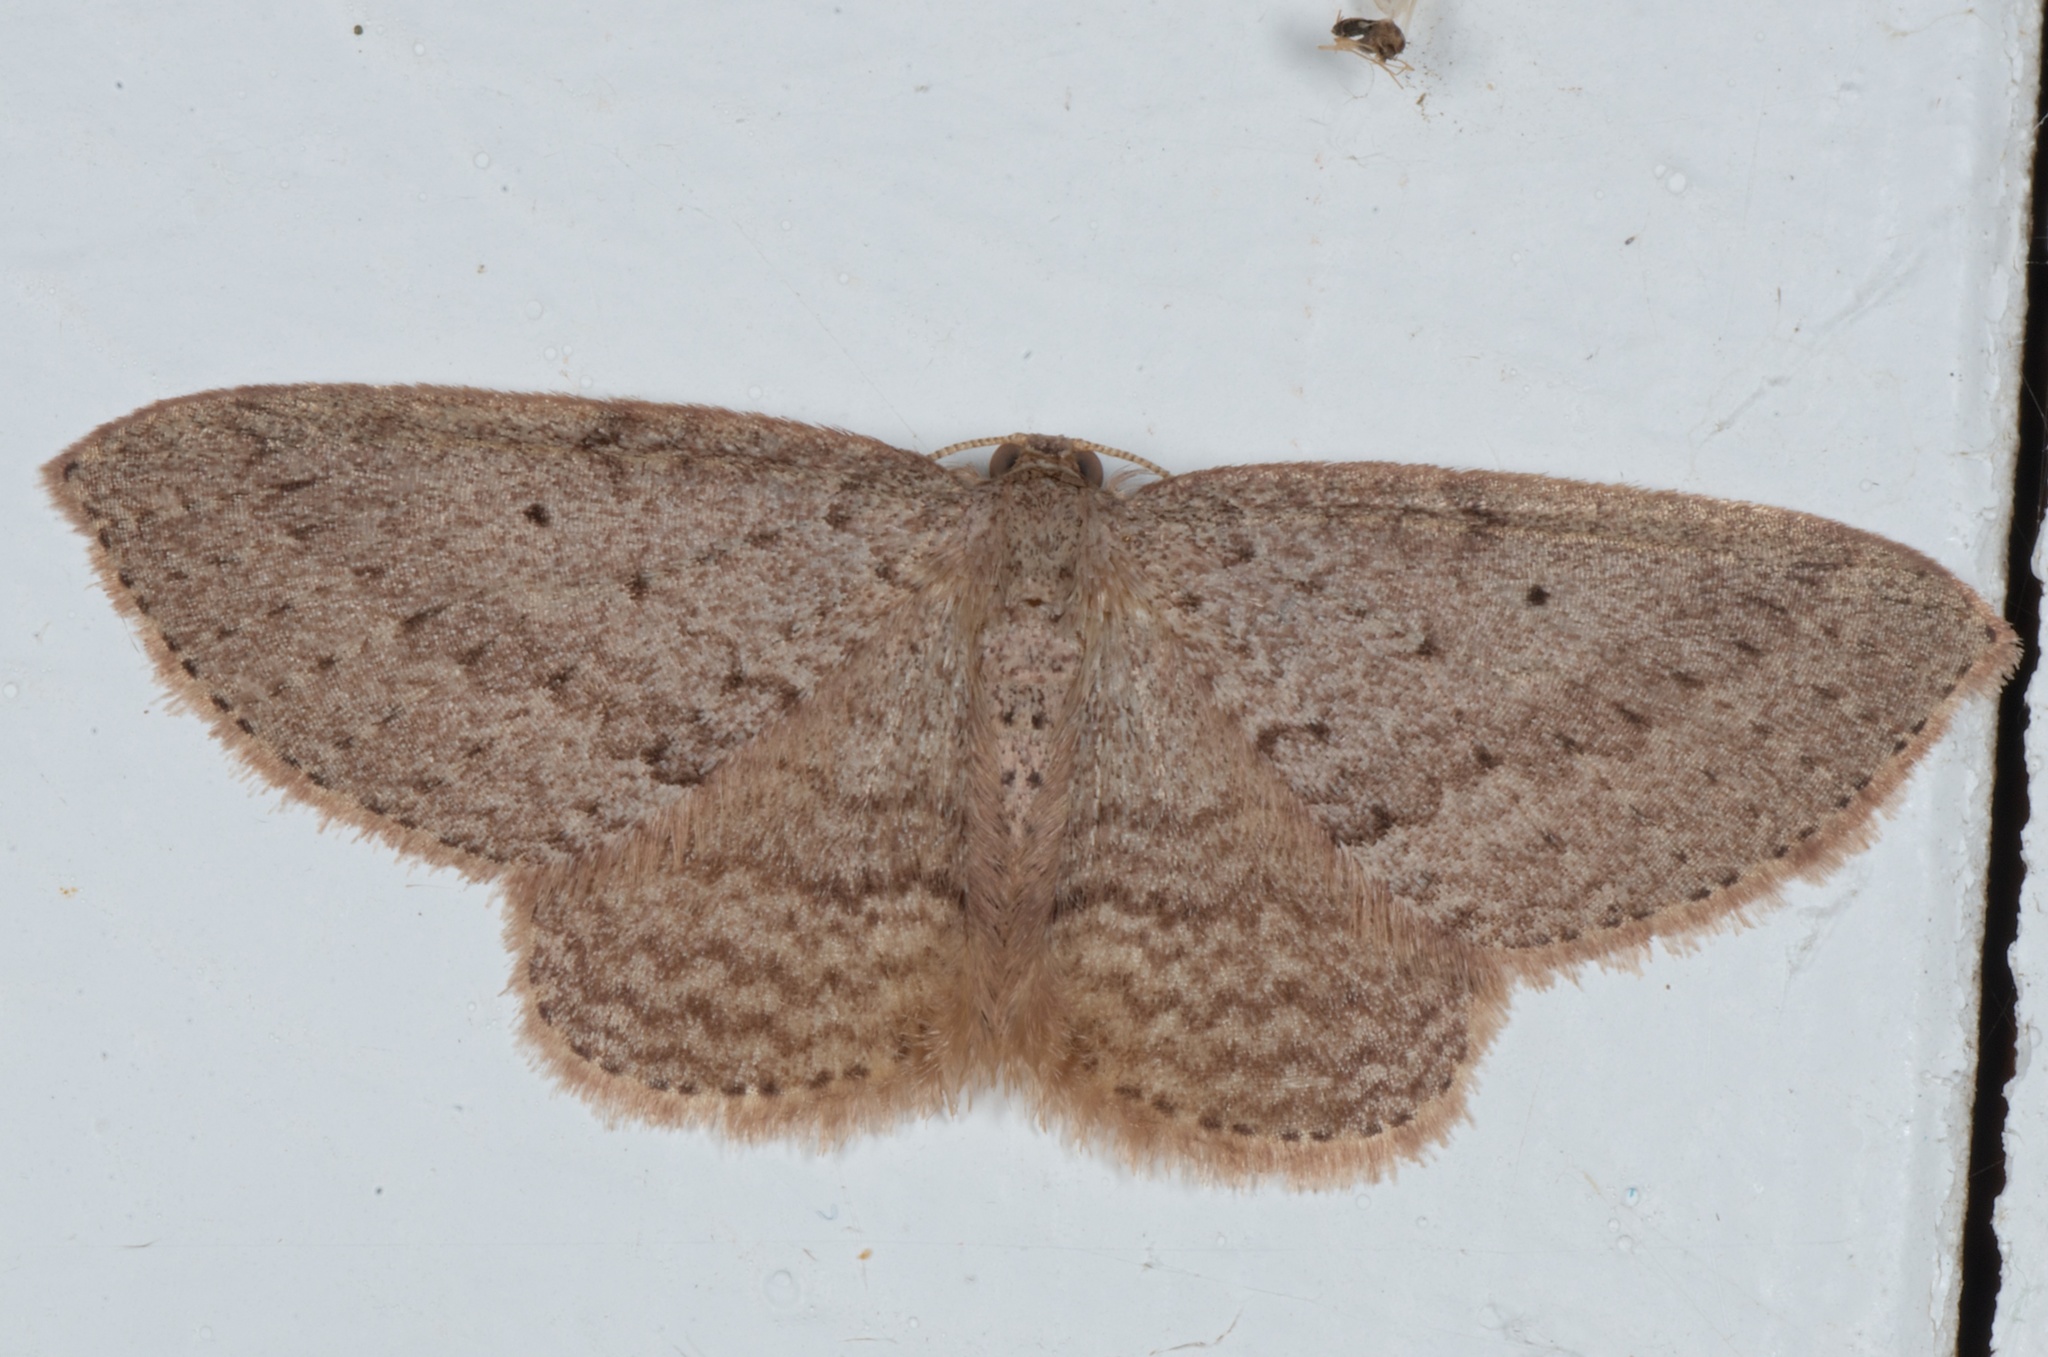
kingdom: Animalia
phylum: Arthropoda
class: Insecta
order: Lepidoptera
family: Geometridae
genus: Poecilasthena
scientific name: Poecilasthena schistaria
